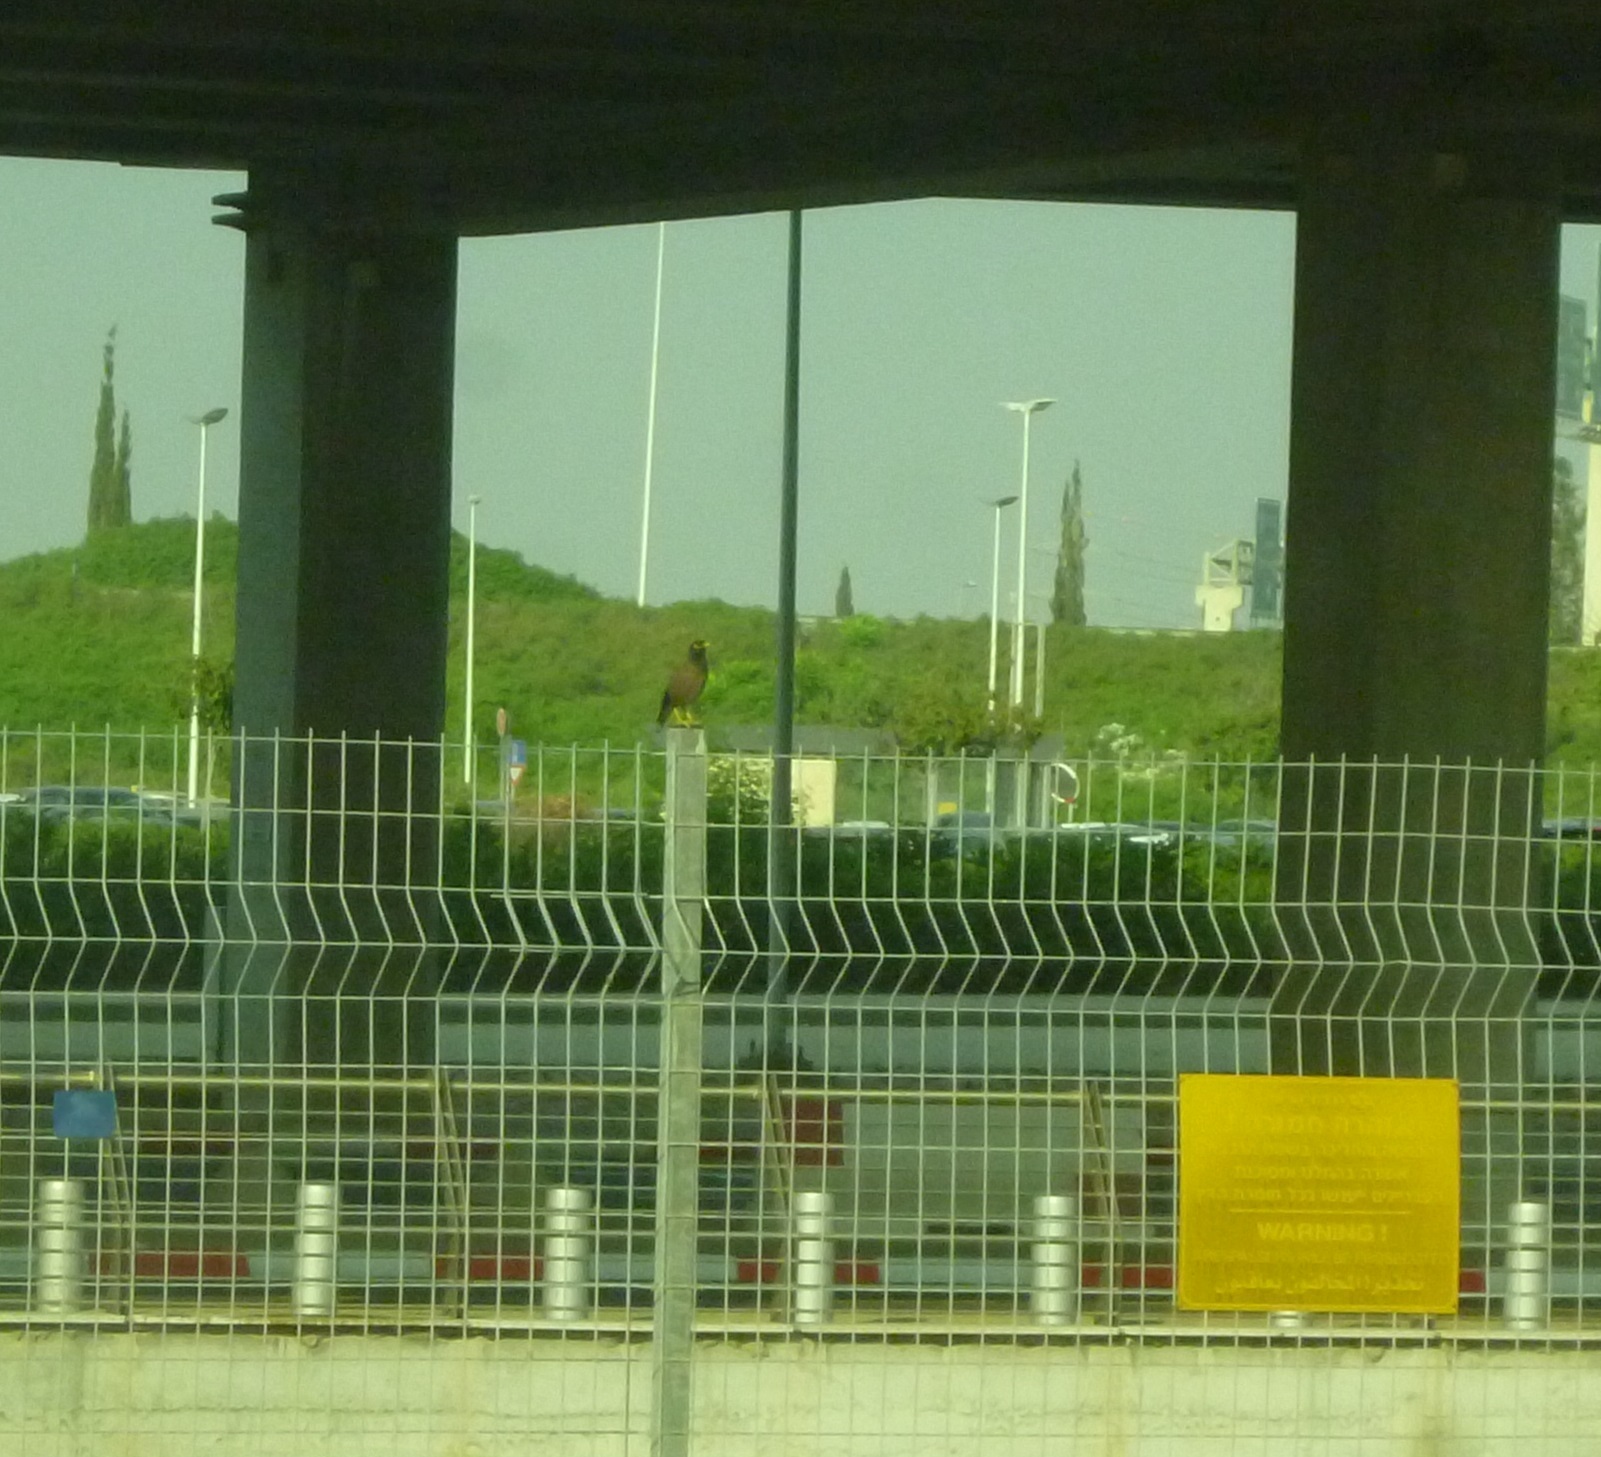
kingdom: Animalia
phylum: Chordata
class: Aves
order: Passeriformes
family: Sturnidae
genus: Acridotheres
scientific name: Acridotheres tristis
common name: Common myna
